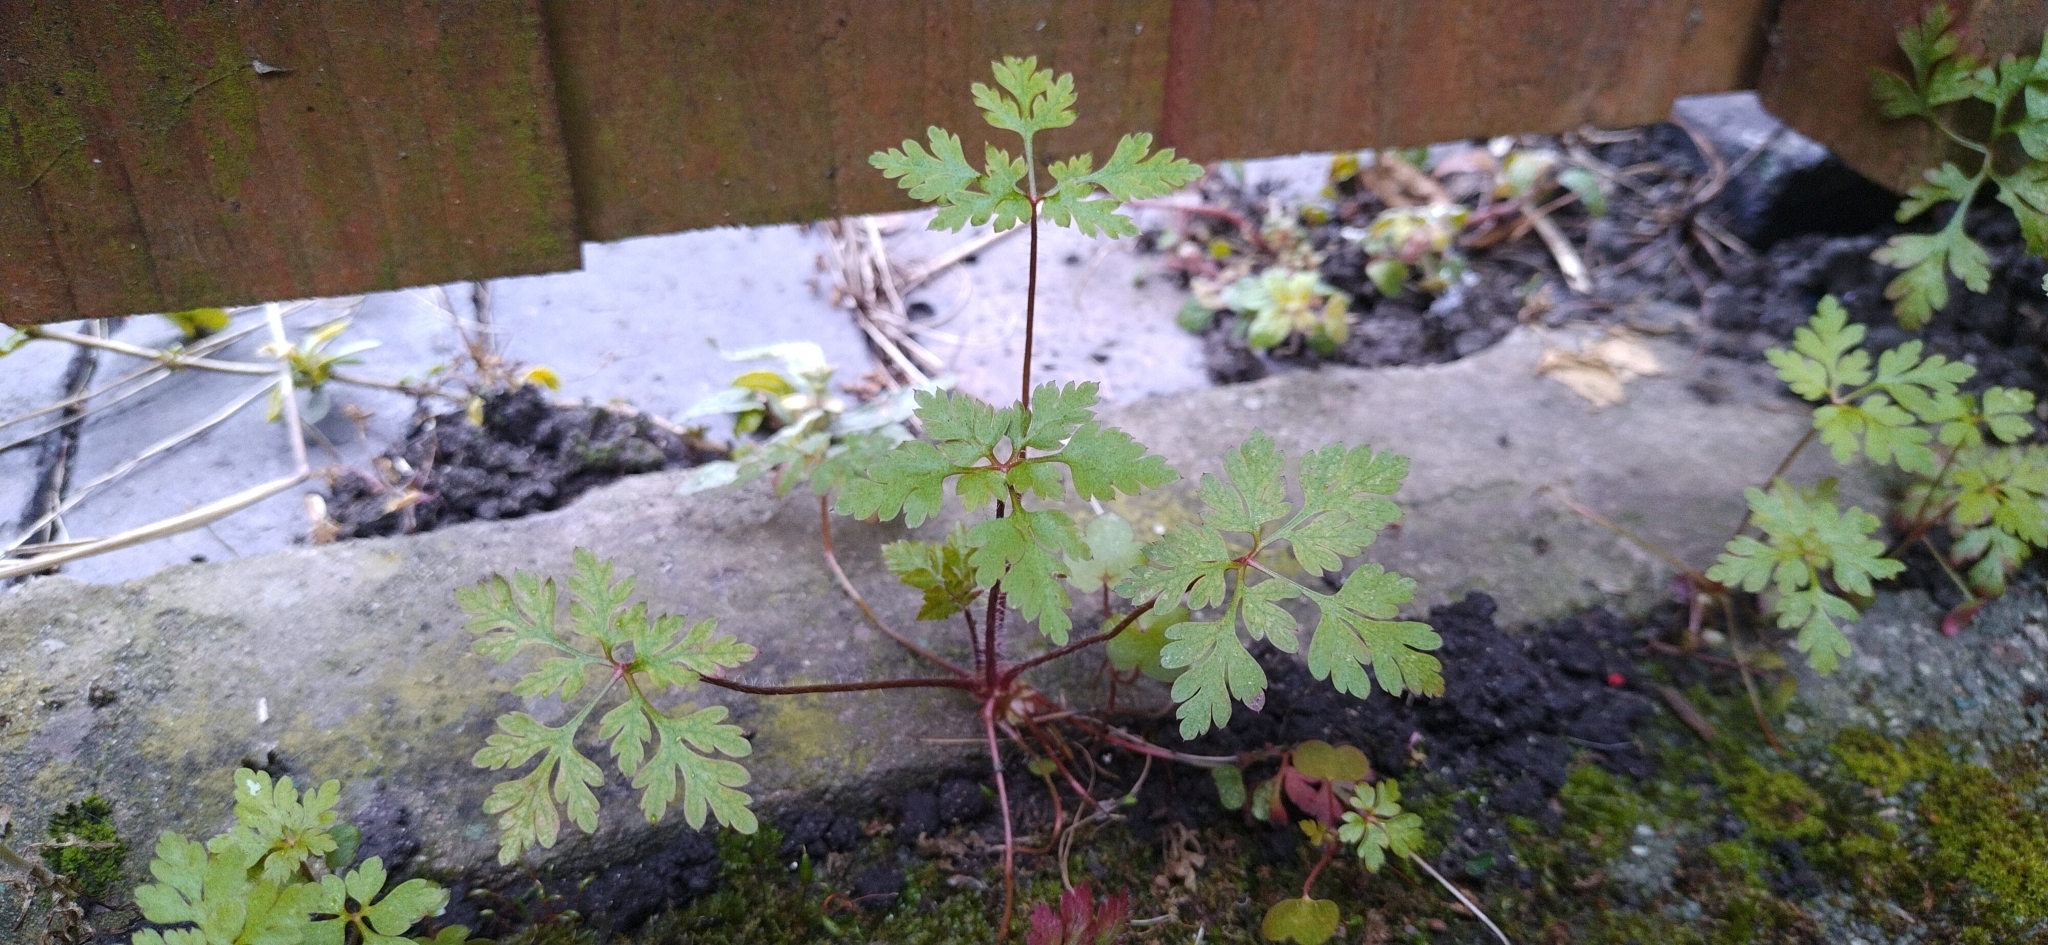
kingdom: Plantae
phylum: Tracheophyta
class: Magnoliopsida
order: Geraniales
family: Geraniaceae
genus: Geranium
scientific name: Geranium robertianum
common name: Herb-robert
